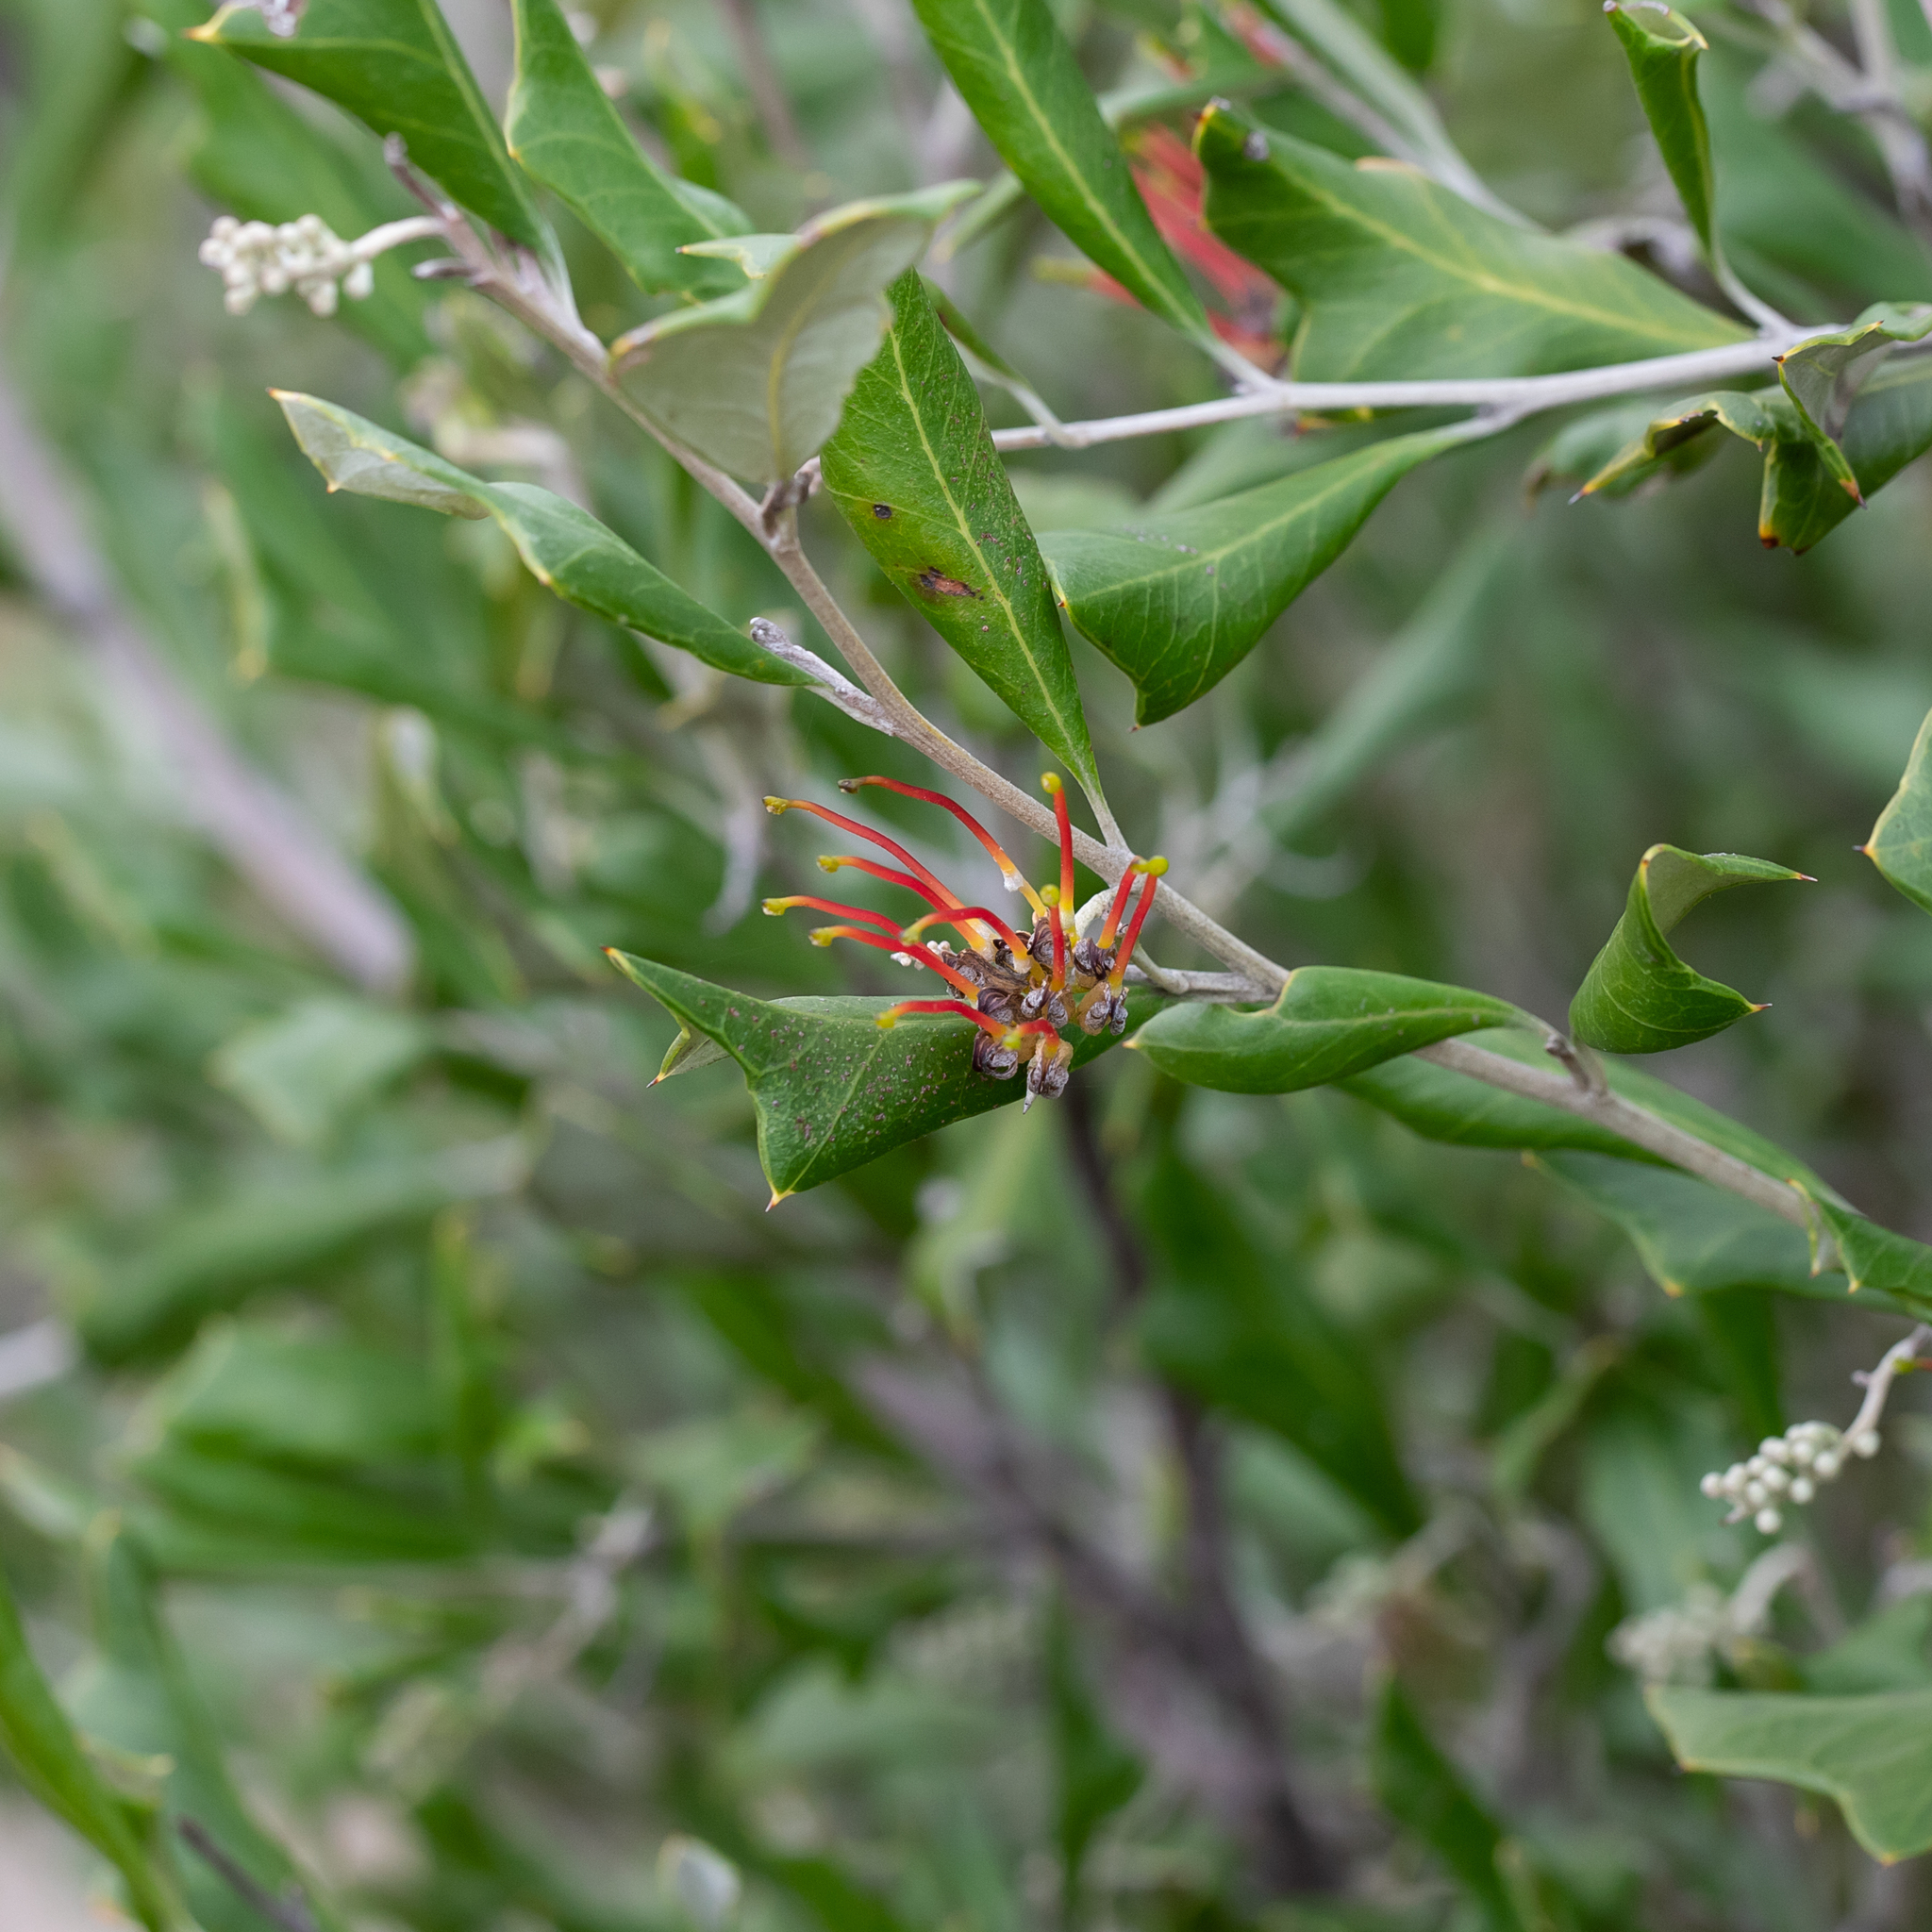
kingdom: Plantae
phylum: Tracheophyta
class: Magnoliopsida
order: Proteales
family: Proteaceae
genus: Grevillea
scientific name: Grevillea ilicifolia
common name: Holly grevillea
